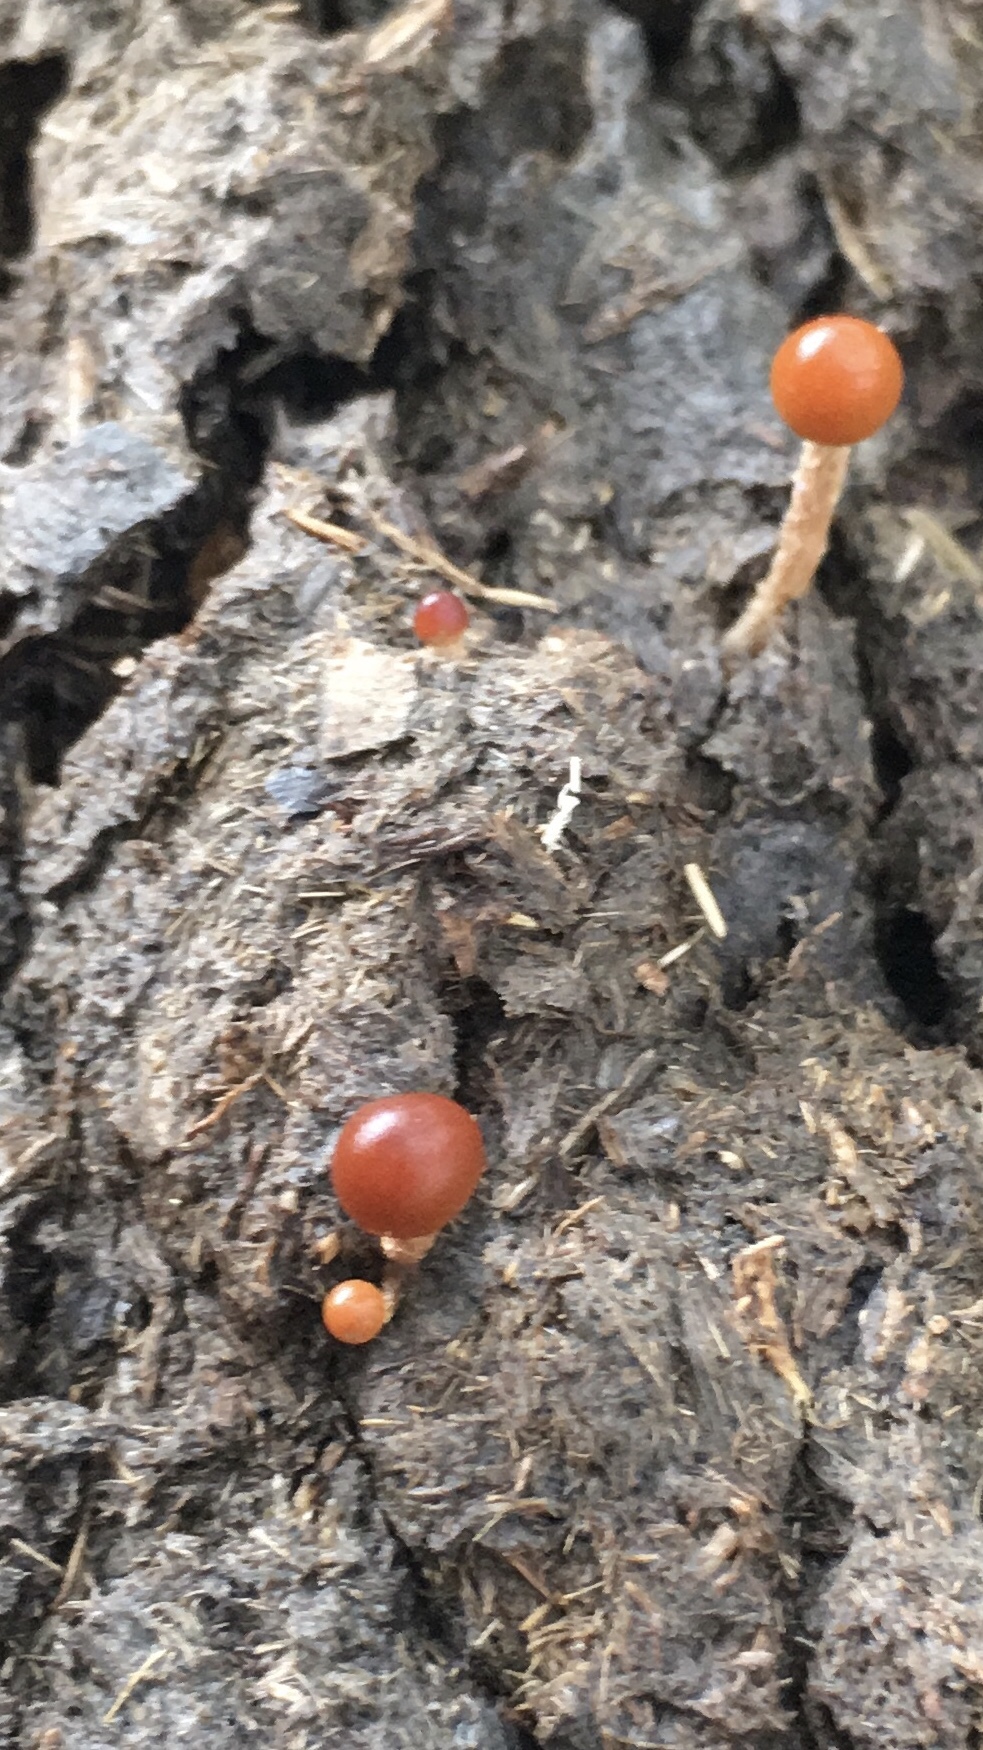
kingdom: Fungi
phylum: Basidiomycota
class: Agaricomycetes
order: Agaricales
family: Strophariaceae
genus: Deconica
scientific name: Deconica coprophila
